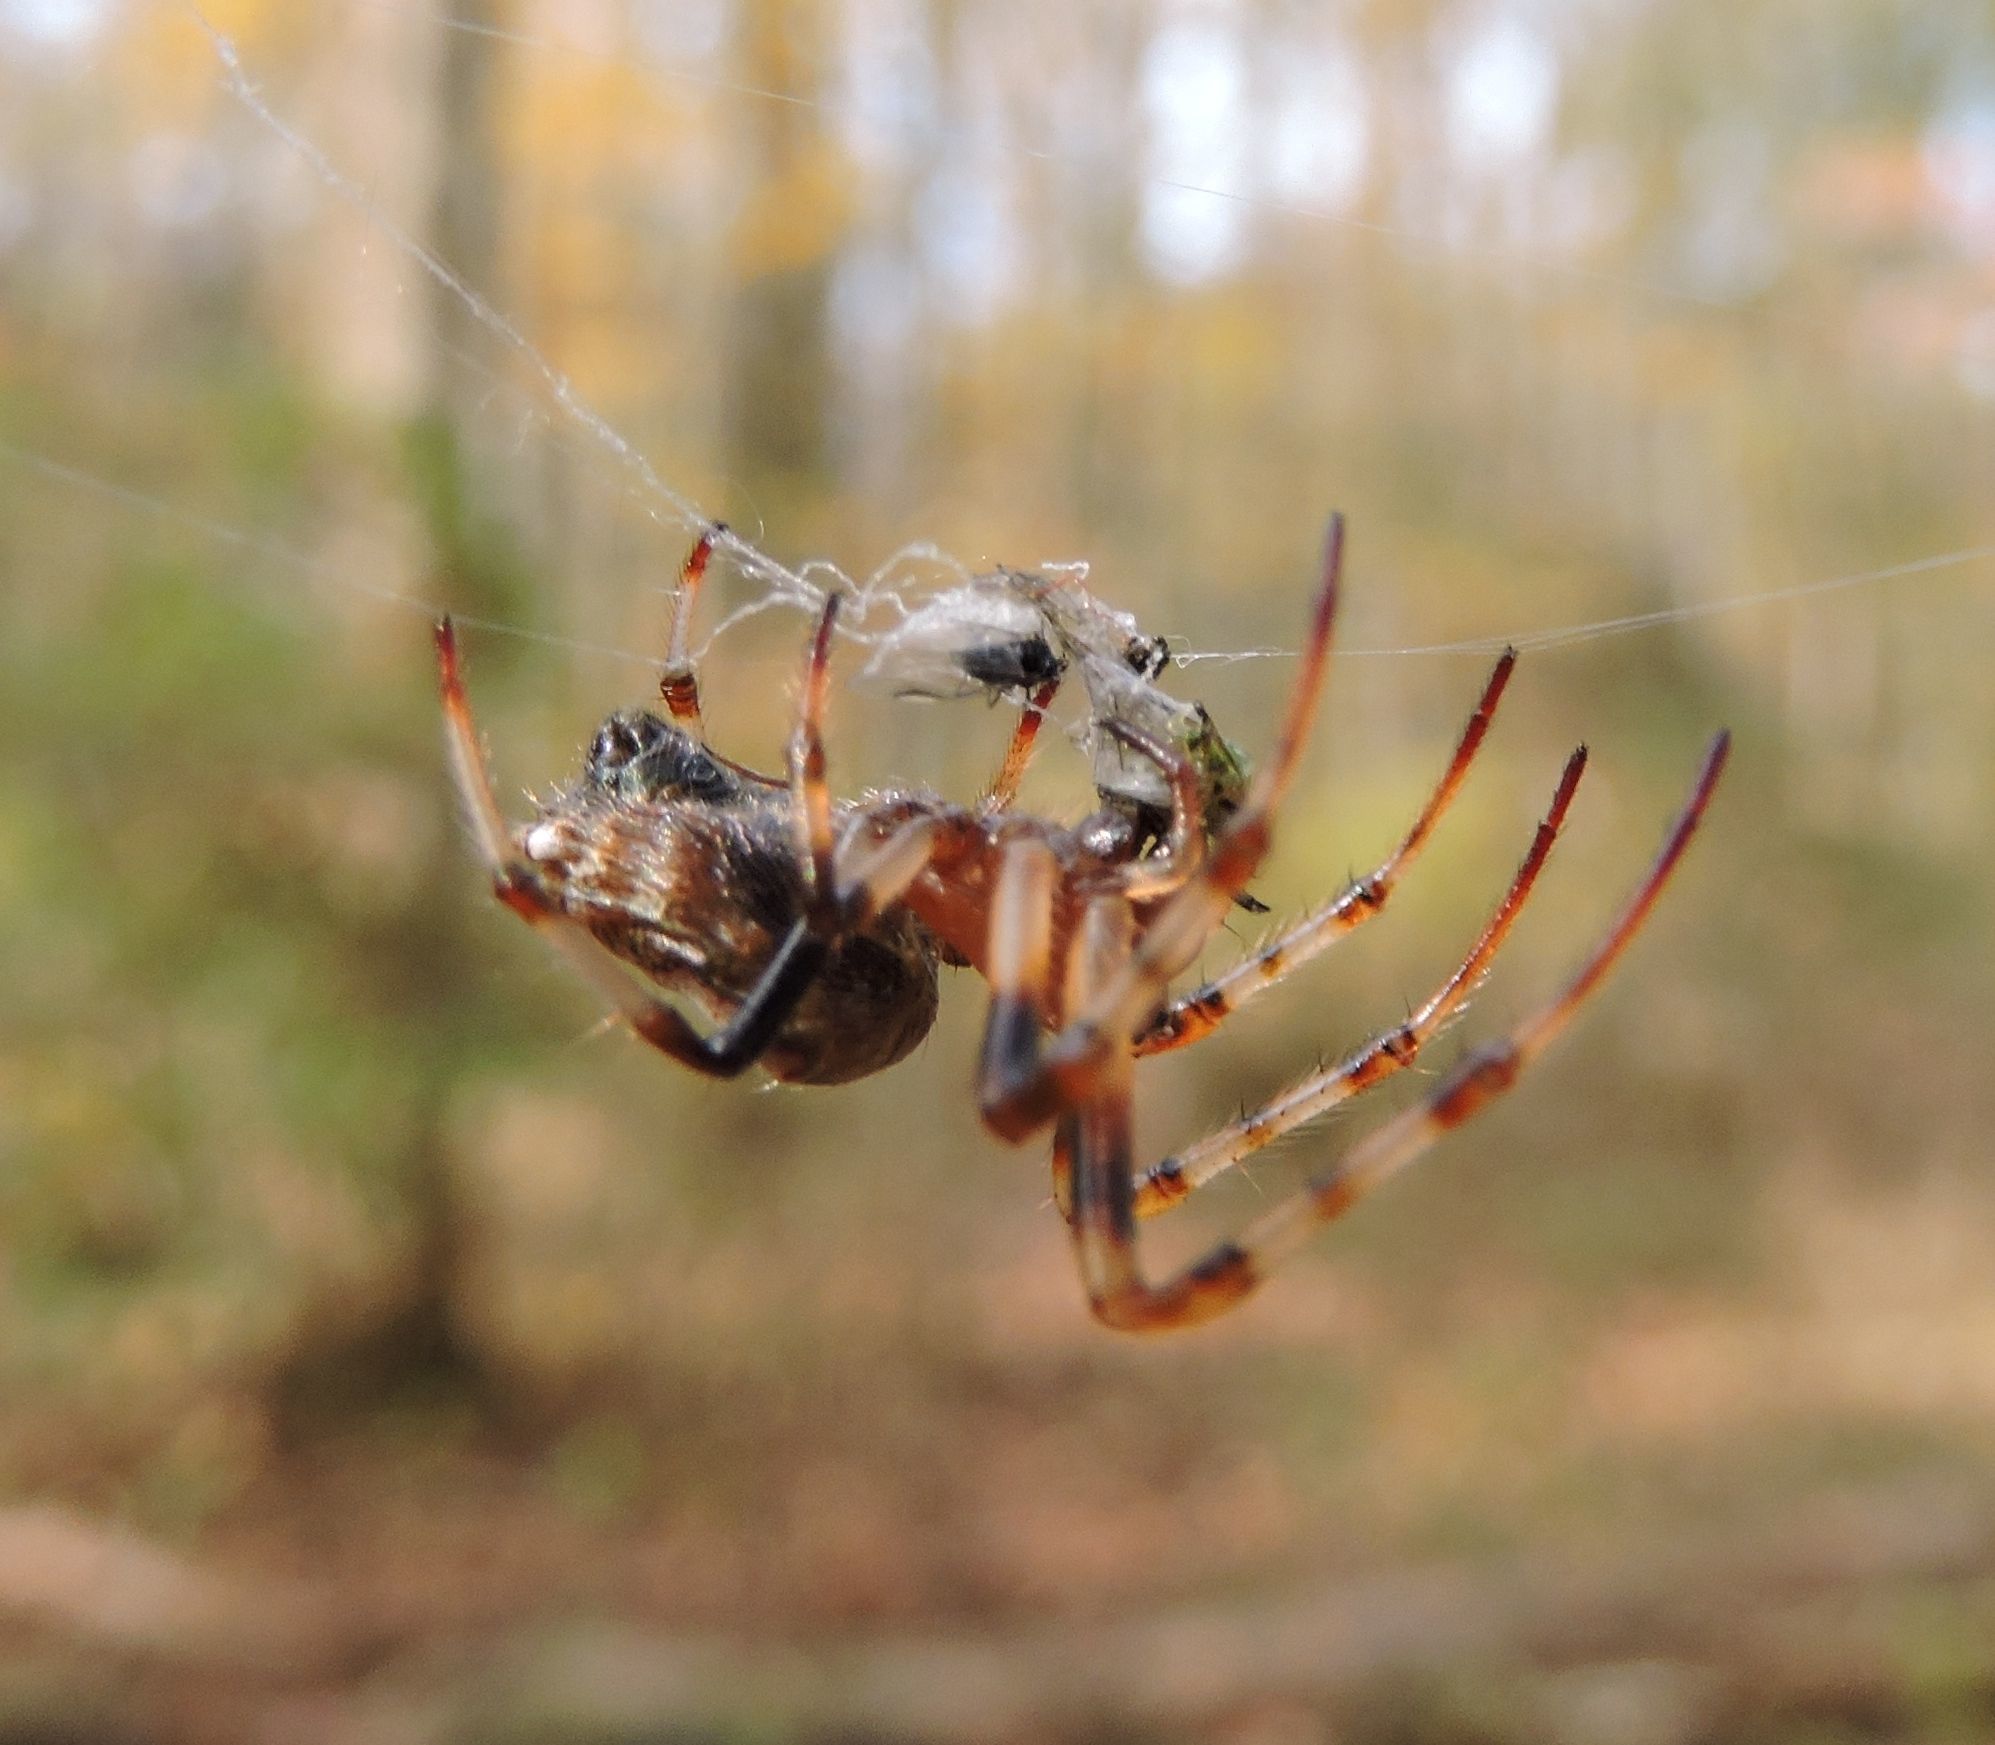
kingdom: Animalia
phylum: Arthropoda
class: Arachnida
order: Araneae
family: Araneidae
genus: Verrucosa
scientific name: Verrucosa arenata
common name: Orb weavers
